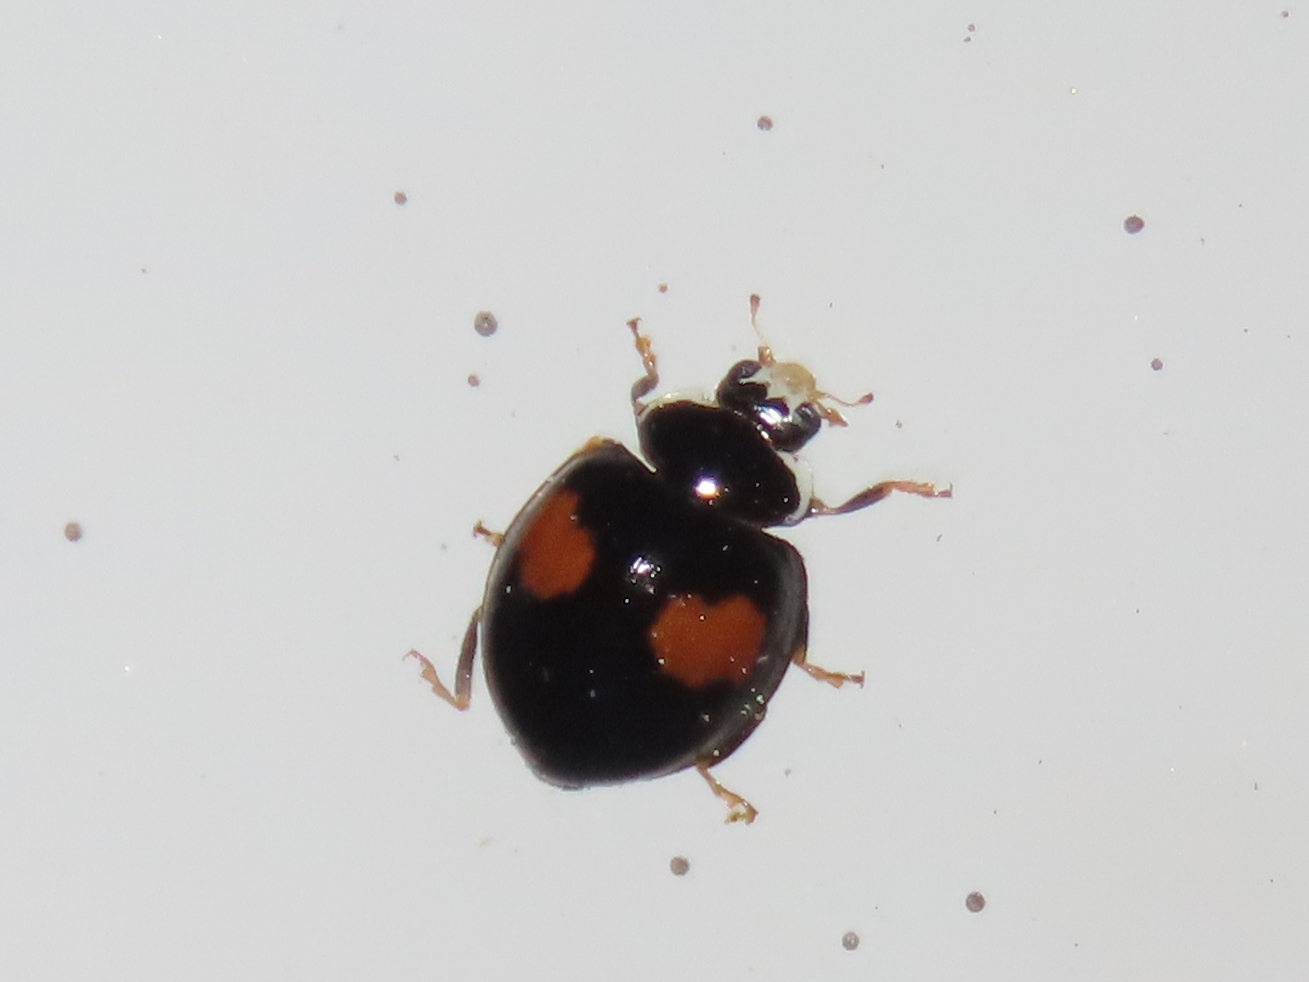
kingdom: Animalia
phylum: Arthropoda
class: Insecta
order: Coleoptera
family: Coccinellidae
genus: Olla
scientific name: Olla v-nigrum
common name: Ashy gray lady beetle
